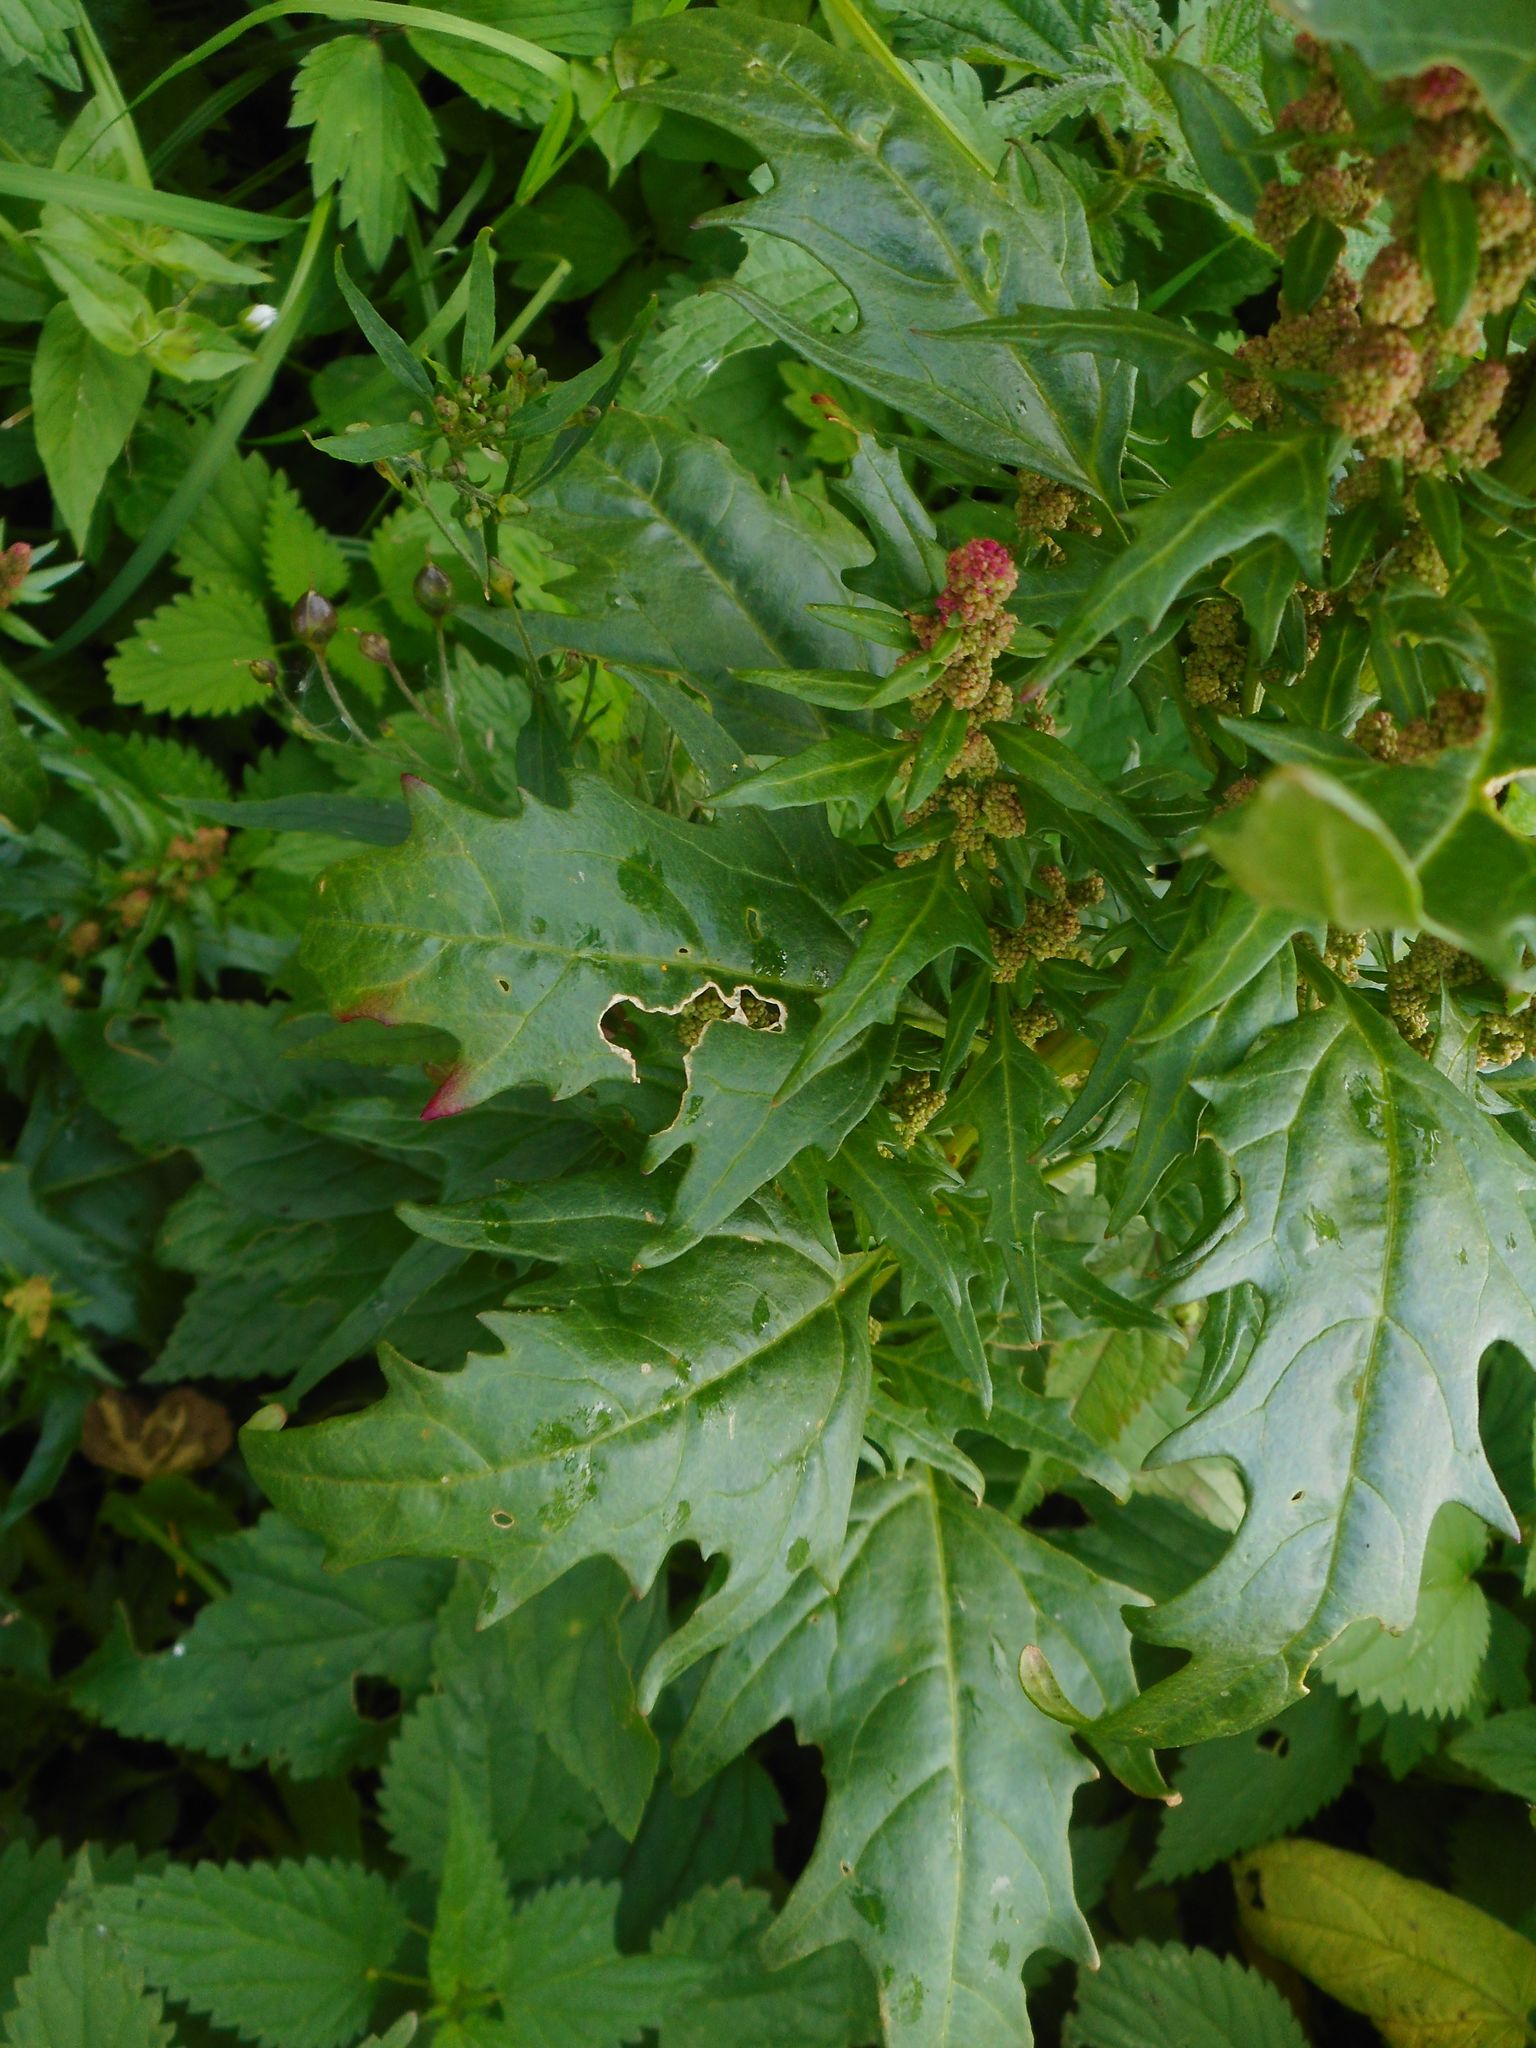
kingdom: Plantae
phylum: Tracheophyta
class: Magnoliopsida
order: Caryophyllales
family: Amaranthaceae
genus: Oxybasis
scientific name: Oxybasis rubra
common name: Red goosefoot
